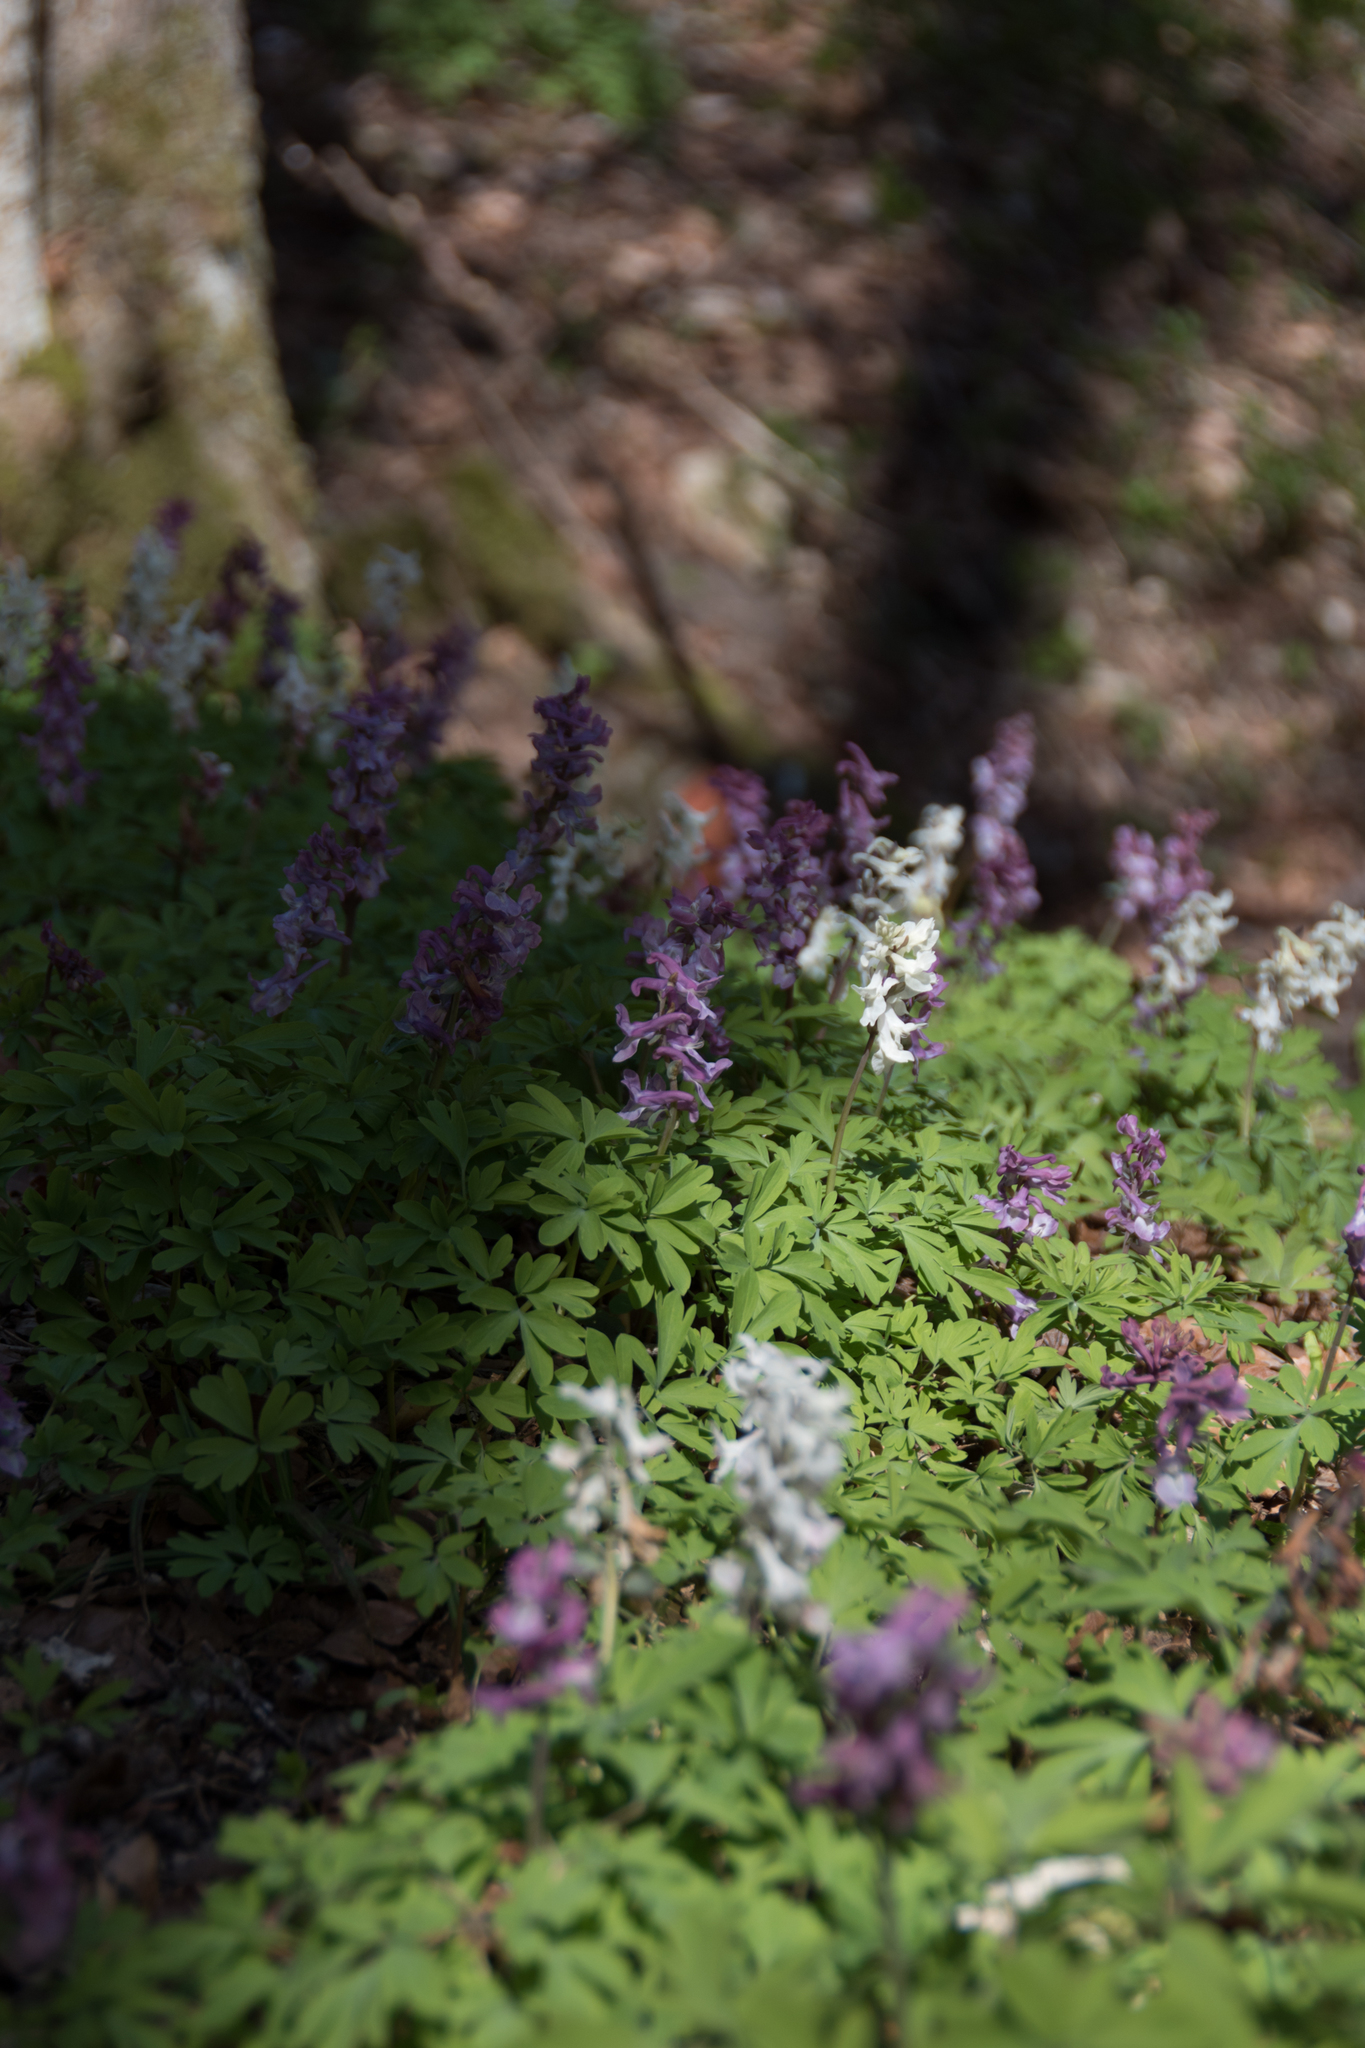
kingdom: Plantae
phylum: Tracheophyta
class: Magnoliopsida
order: Ranunculales
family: Papaveraceae
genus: Corydalis
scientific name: Corydalis cava
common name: Hollowroot
